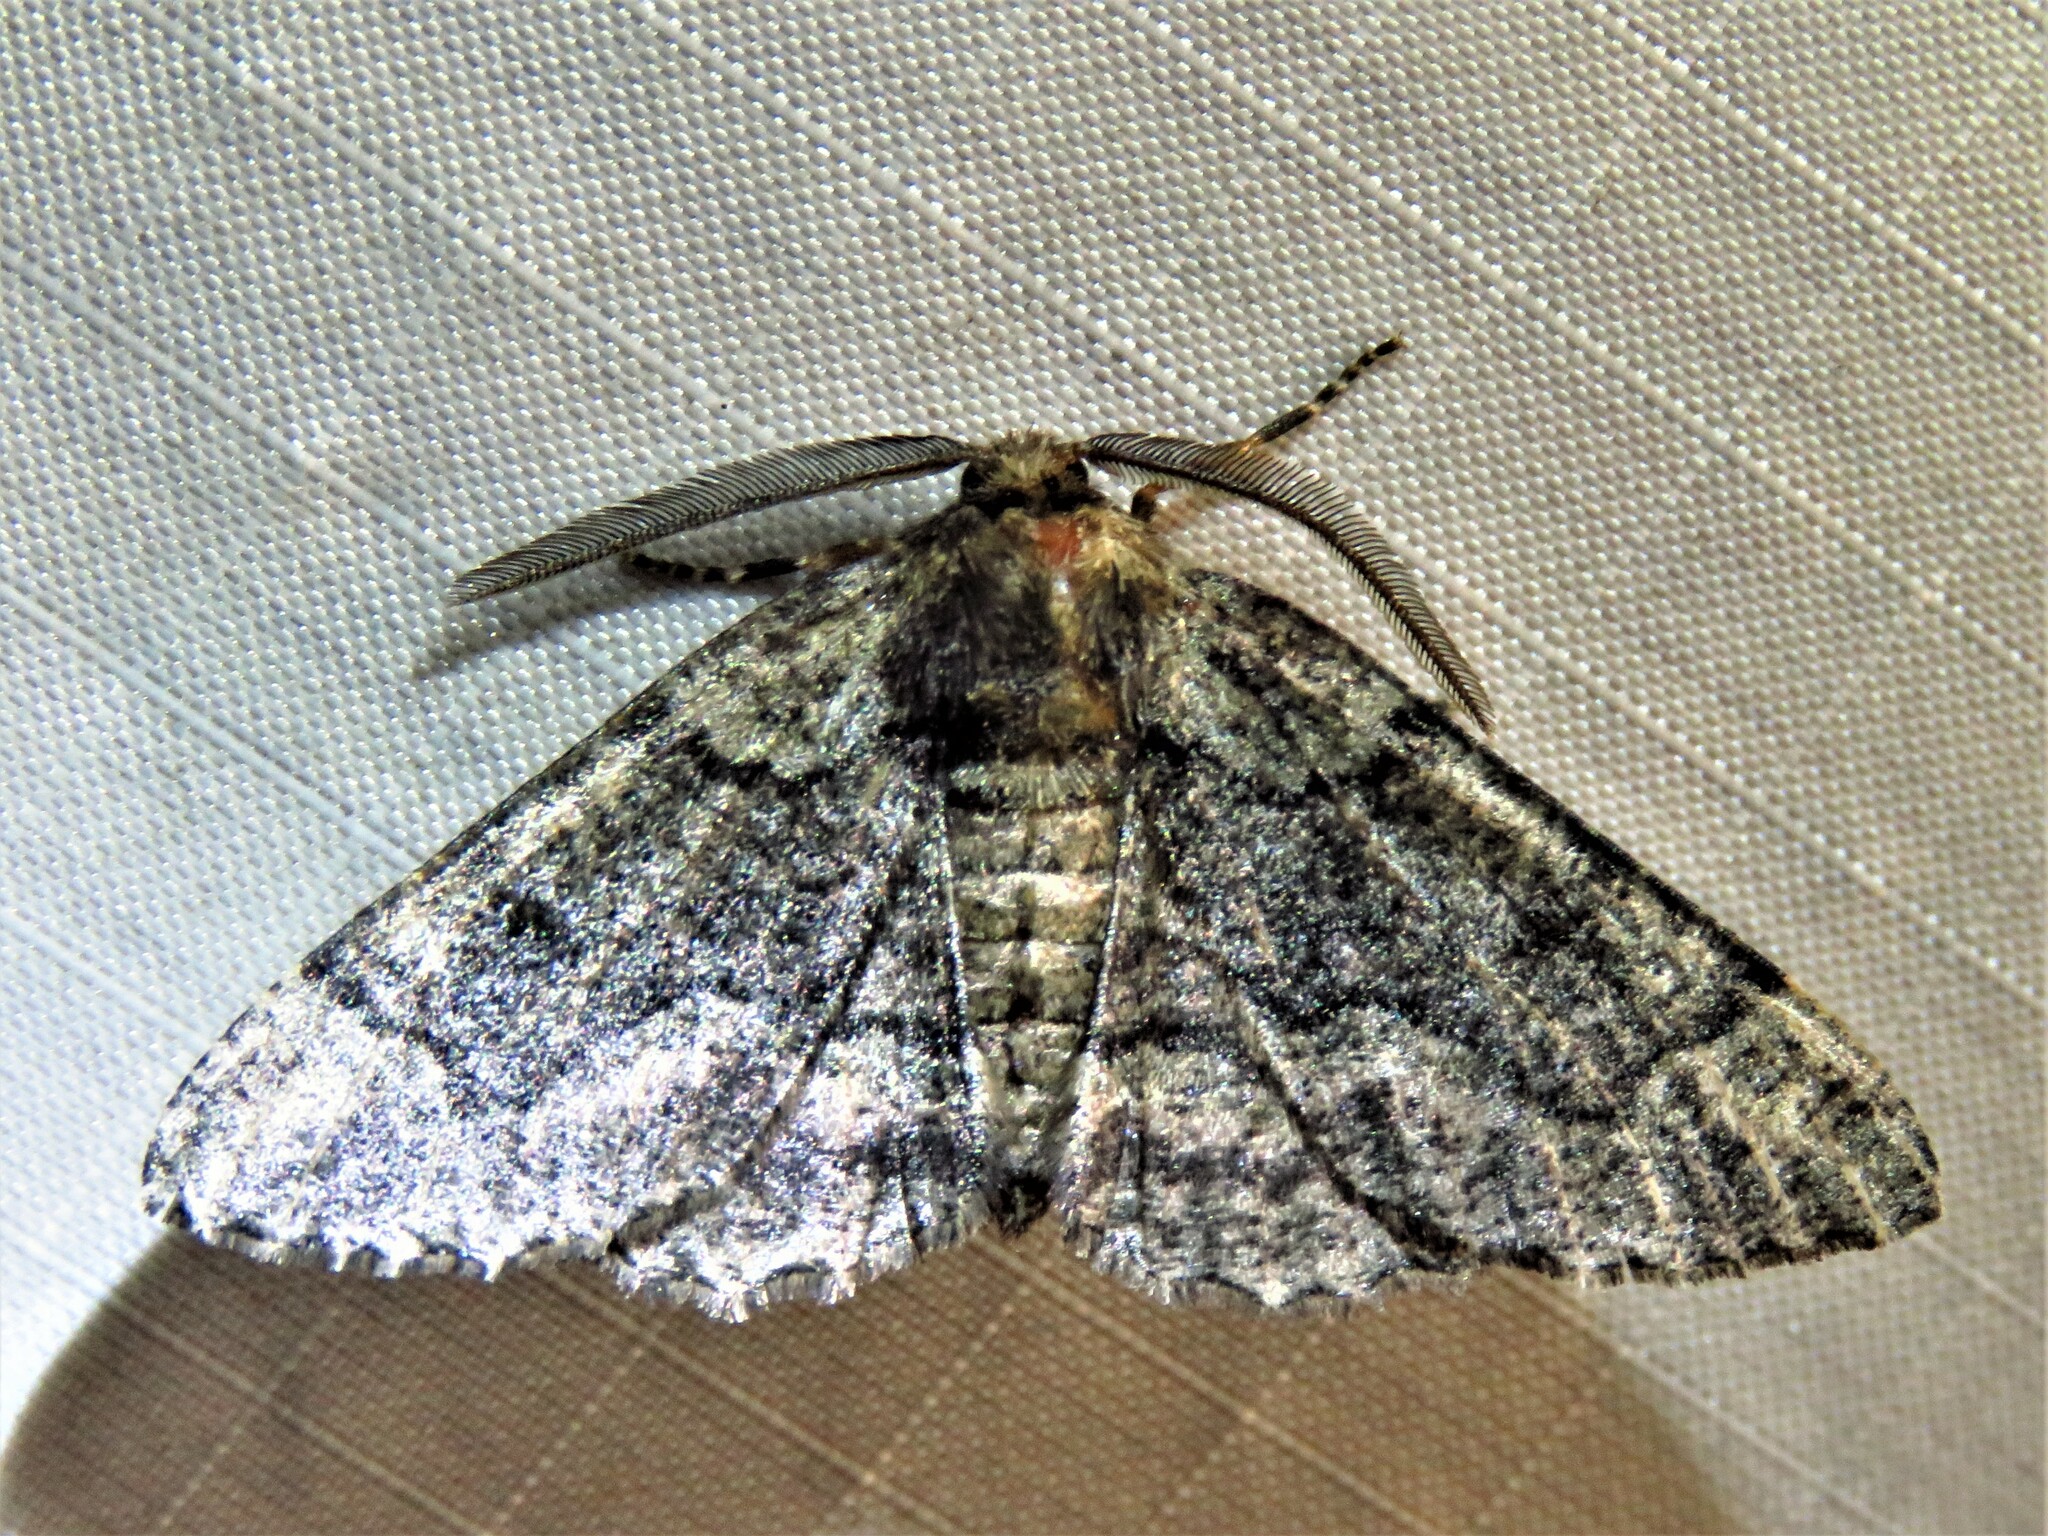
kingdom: Animalia
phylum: Arthropoda
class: Insecta
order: Lepidoptera
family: Geometridae
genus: Phaeoura
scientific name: Phaeoura quernaria
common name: Oak beauty
